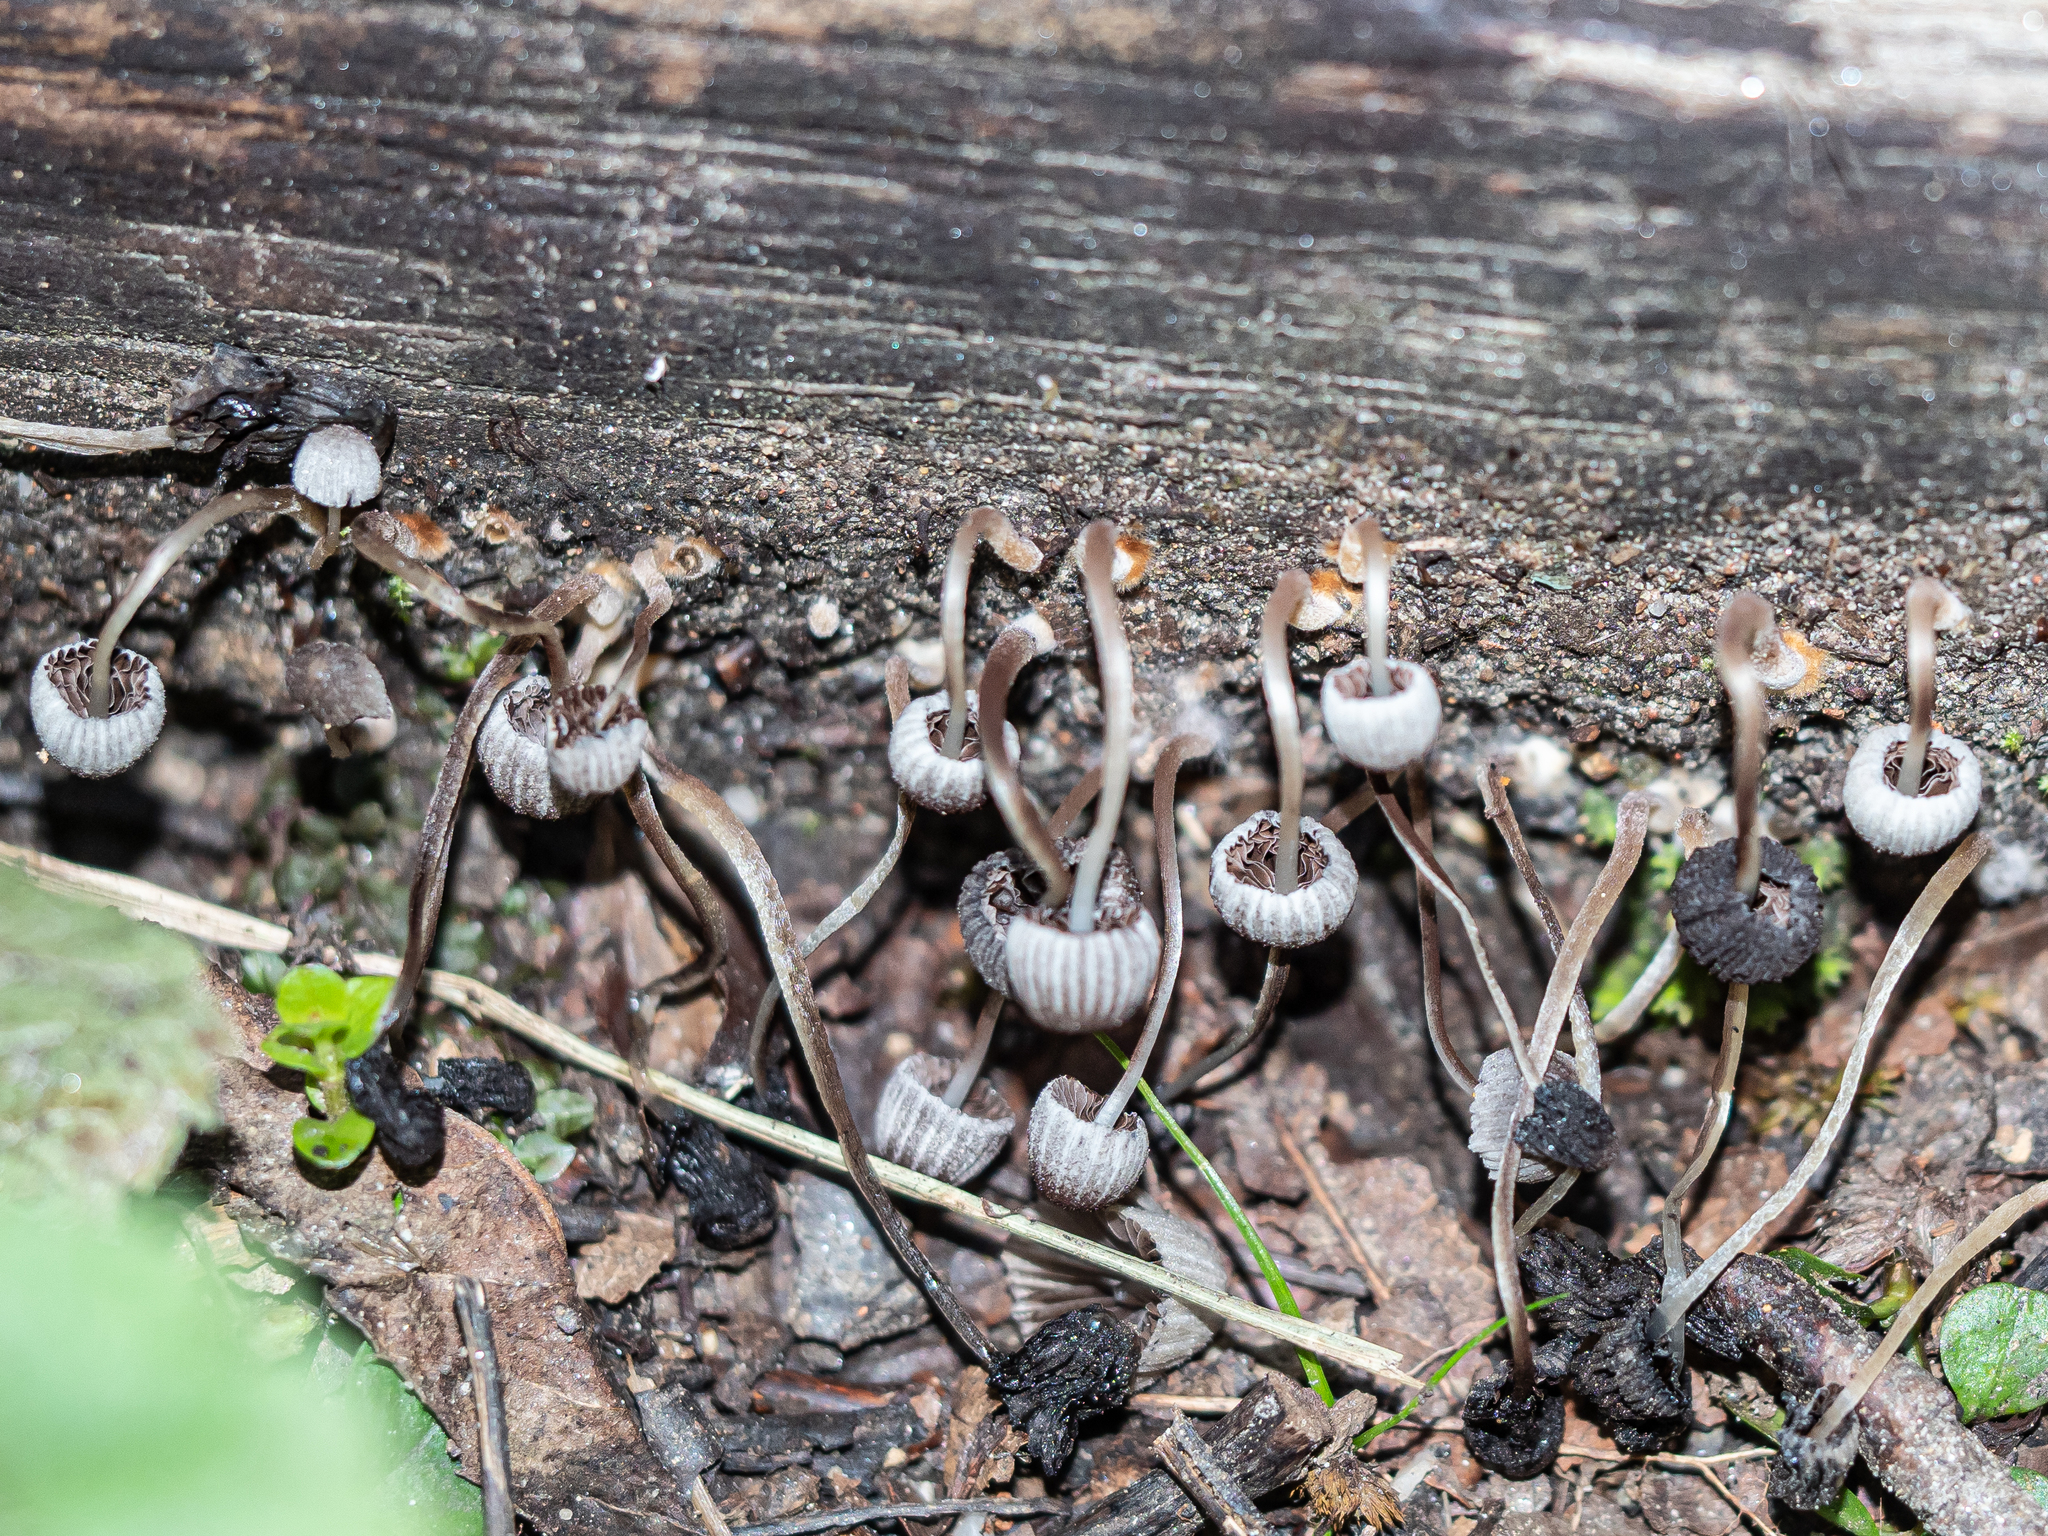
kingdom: Fungi
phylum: Basidiomycota
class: Agaricomycetes
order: Agaricales
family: Psathyrellaceae
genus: Coprinellus
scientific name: Coprinellus disseminatus
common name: Fairies' bonnets
